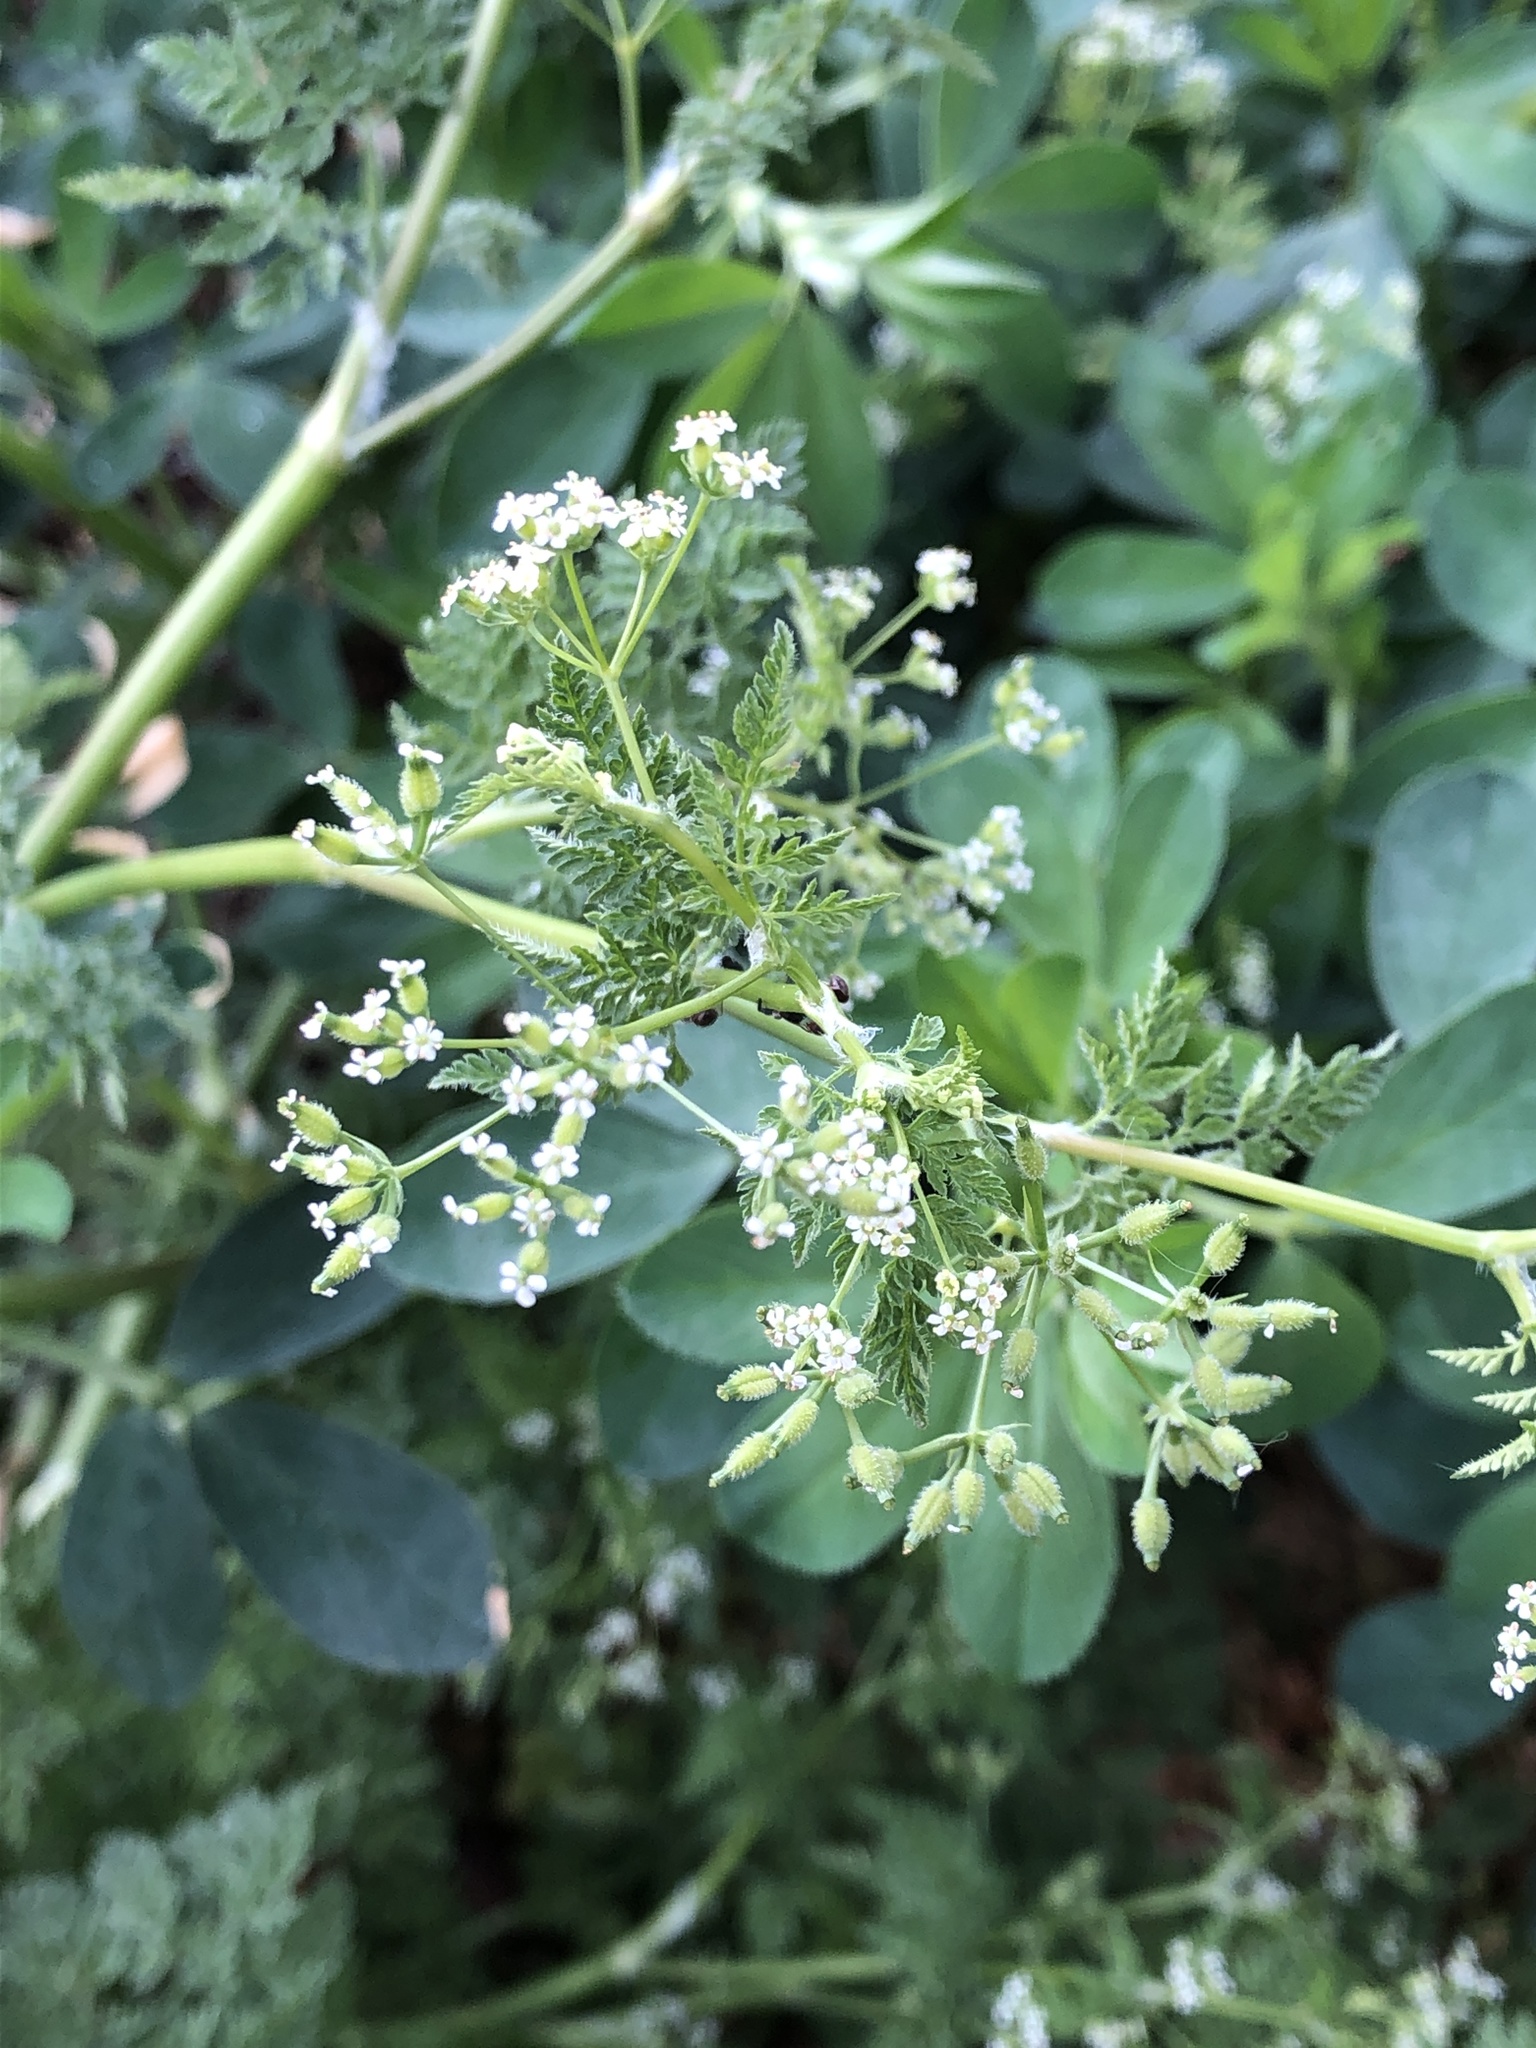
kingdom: Plantae
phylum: Tracheophyta
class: Magnoliopsida
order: Apiales
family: Apiaceae
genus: Anthriscus
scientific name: Anthriscus caucalis
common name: Bur chervil
